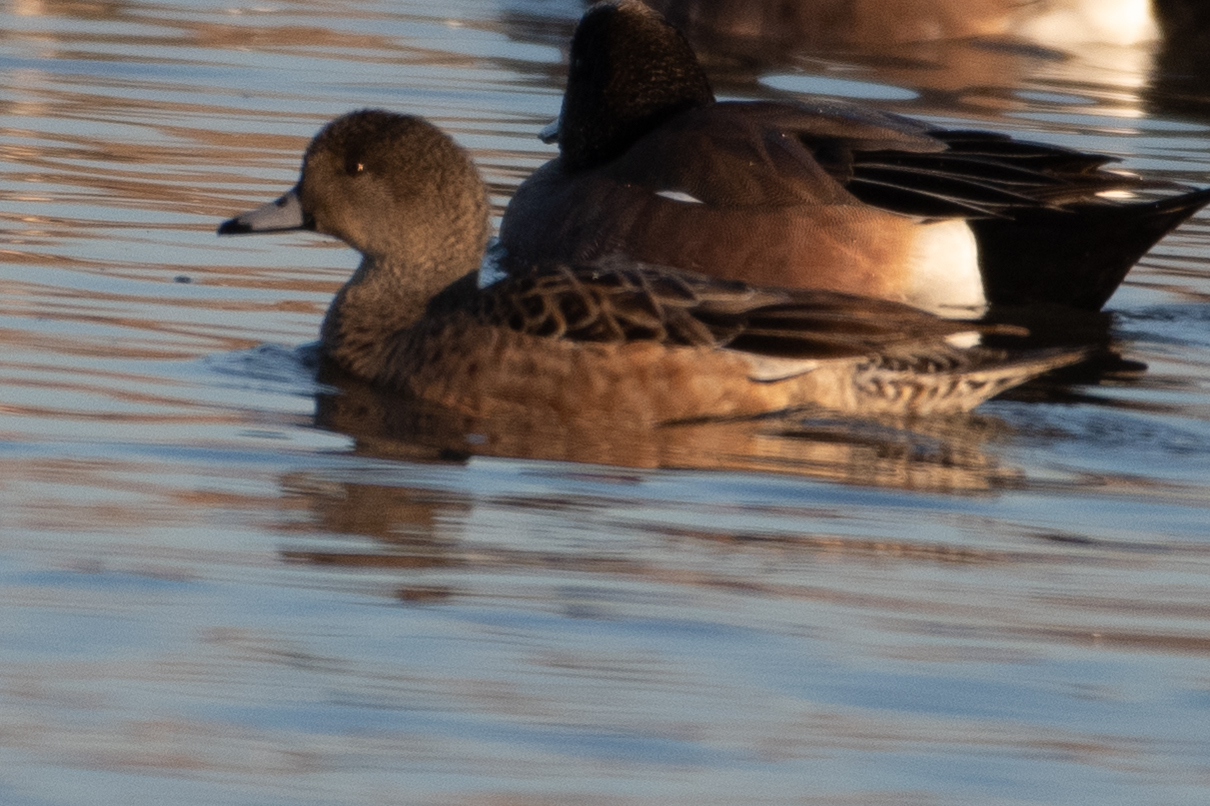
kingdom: Animalia
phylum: Chordata
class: Aves
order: Anseriformes
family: Anatidae
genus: Mareca
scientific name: Mareca americana
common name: American wigeon
